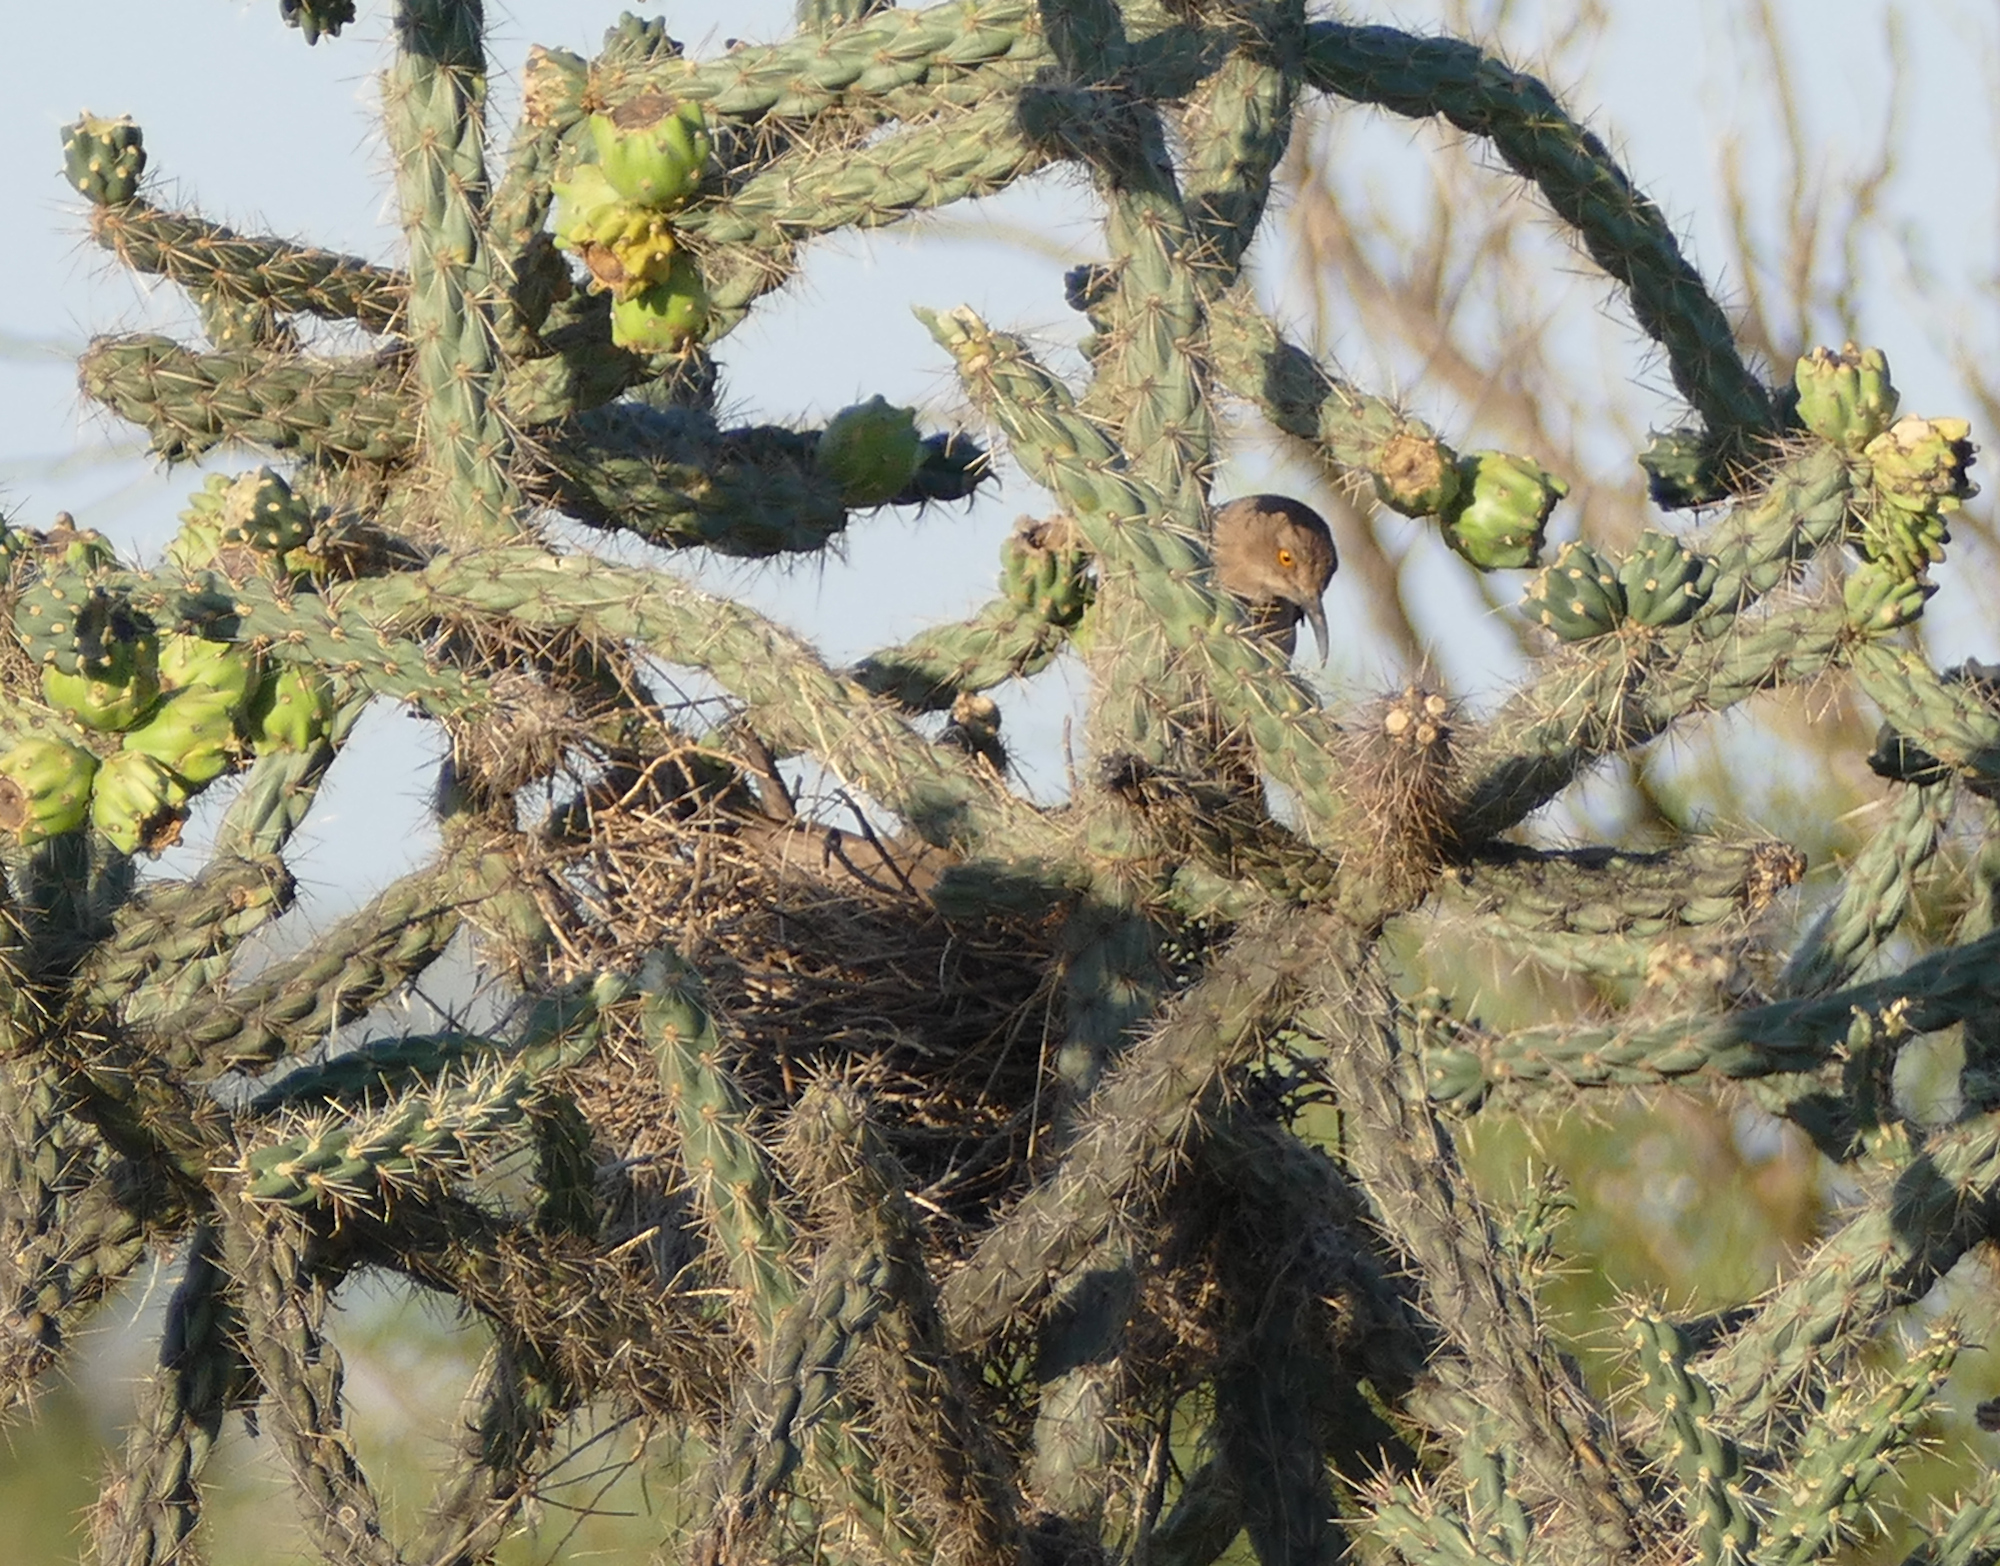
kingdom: Animalia
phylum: Chordata
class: Aves
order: Passeriformes
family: Mimidae
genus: Toxostoma
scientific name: Toxostoma curvirostre
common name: Curve-billed thrasher
